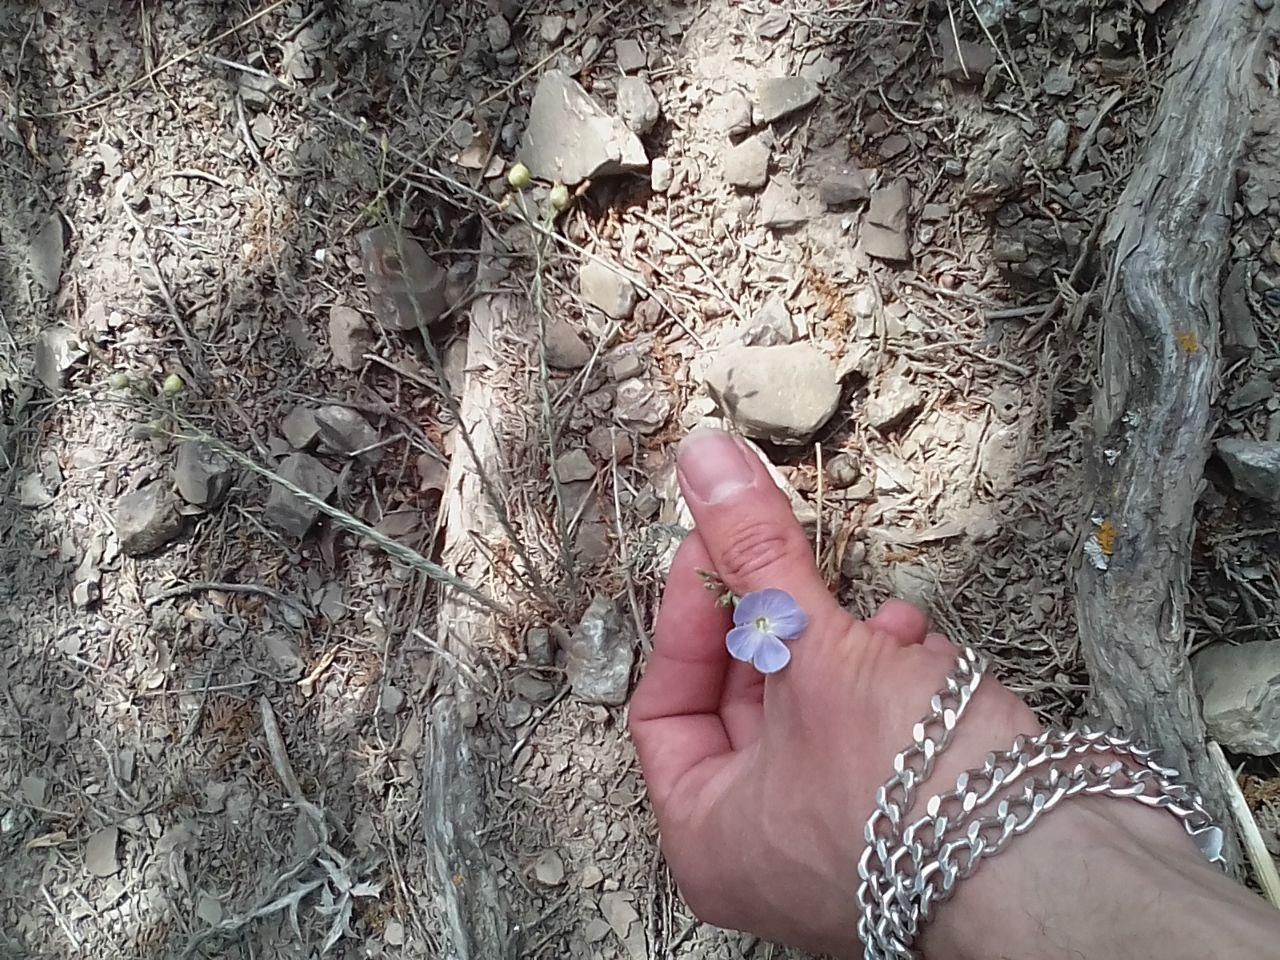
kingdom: Plantae
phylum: Tracheophyta
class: Magnoliopsida
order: Malpighiales
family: Linaceae
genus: Linum
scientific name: Linum austriacum
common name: Austrian flax
